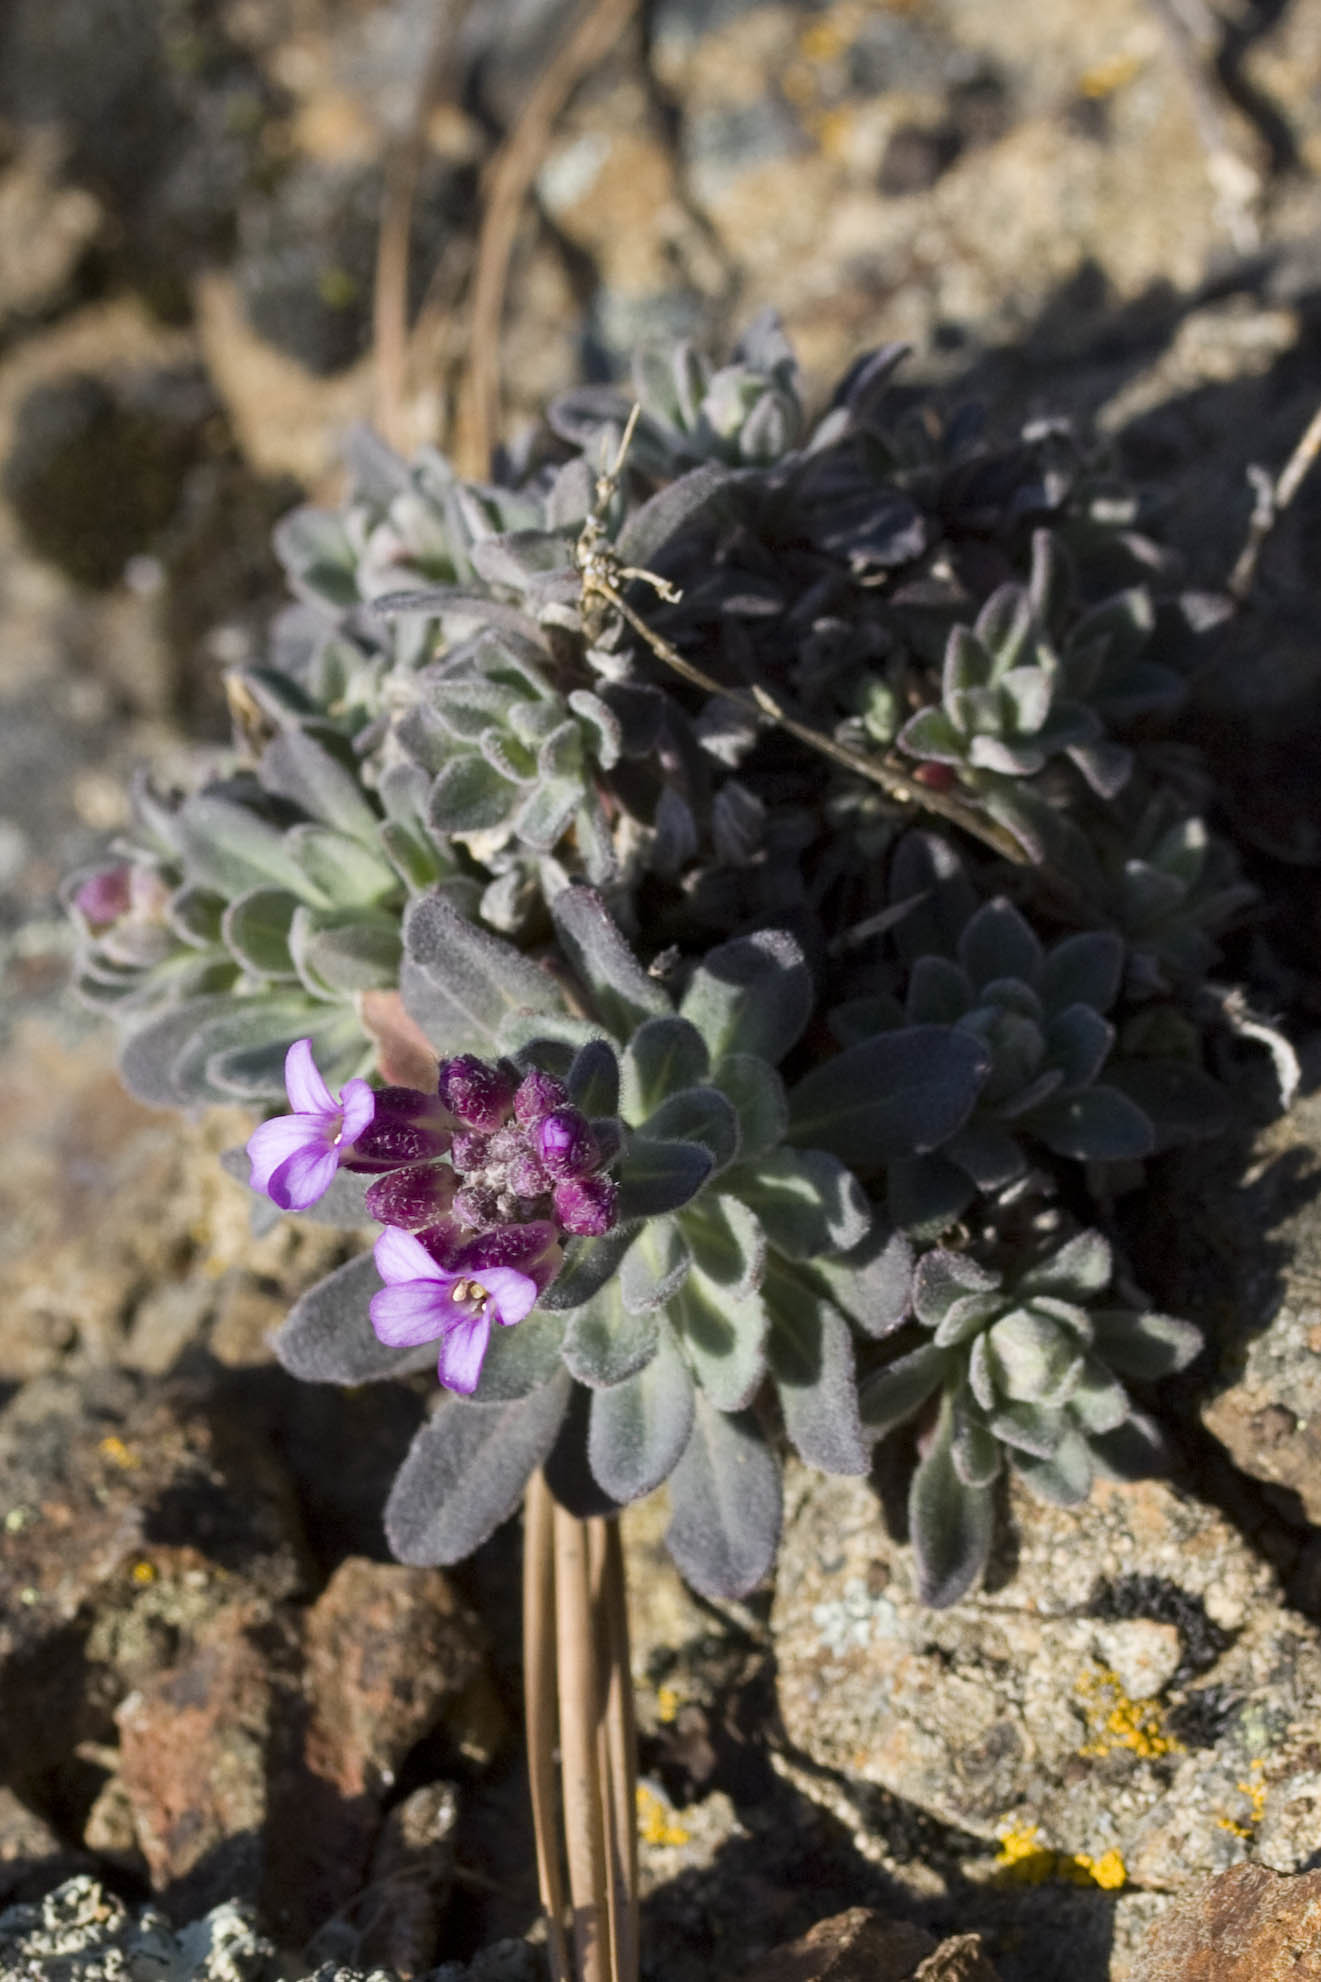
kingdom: Plantae
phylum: Tracheophyta
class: Magnoliopsida
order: Brassicales
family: Brassicaceae
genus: Boechera
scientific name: Boechera breweri
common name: Brewer's rockcress
